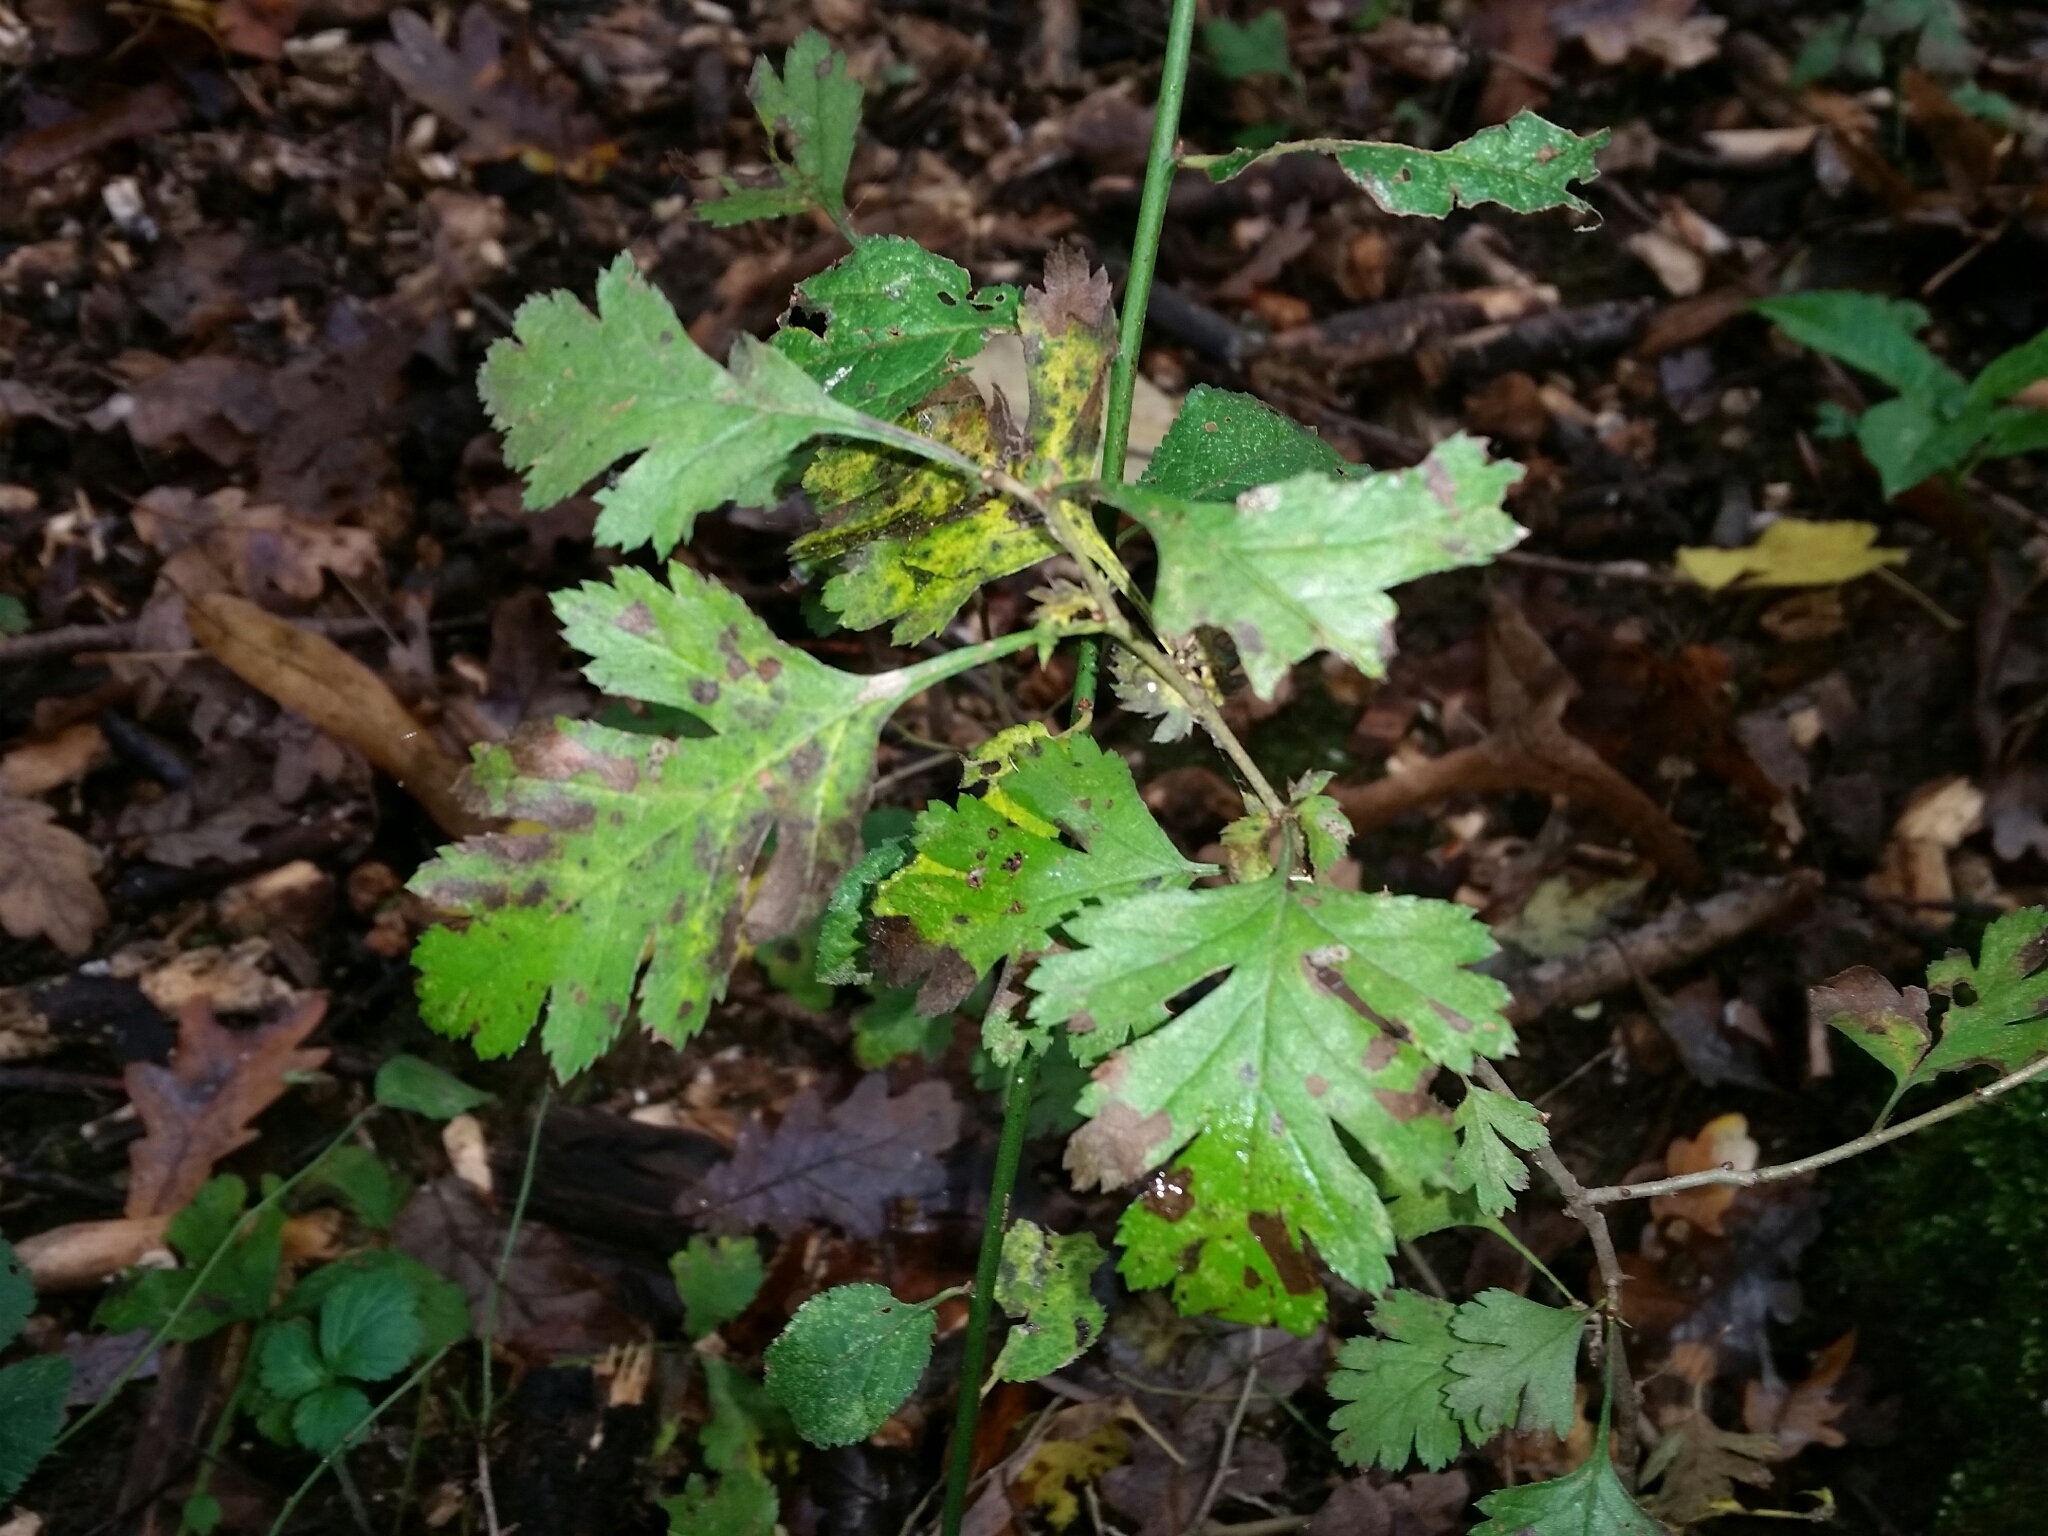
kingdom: Plantae
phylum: Tracheophyta
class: Magnoliopsida
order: Rosales
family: Rosaceae
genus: Crataegus
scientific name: Crataegus monogyna
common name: Hawthorn
